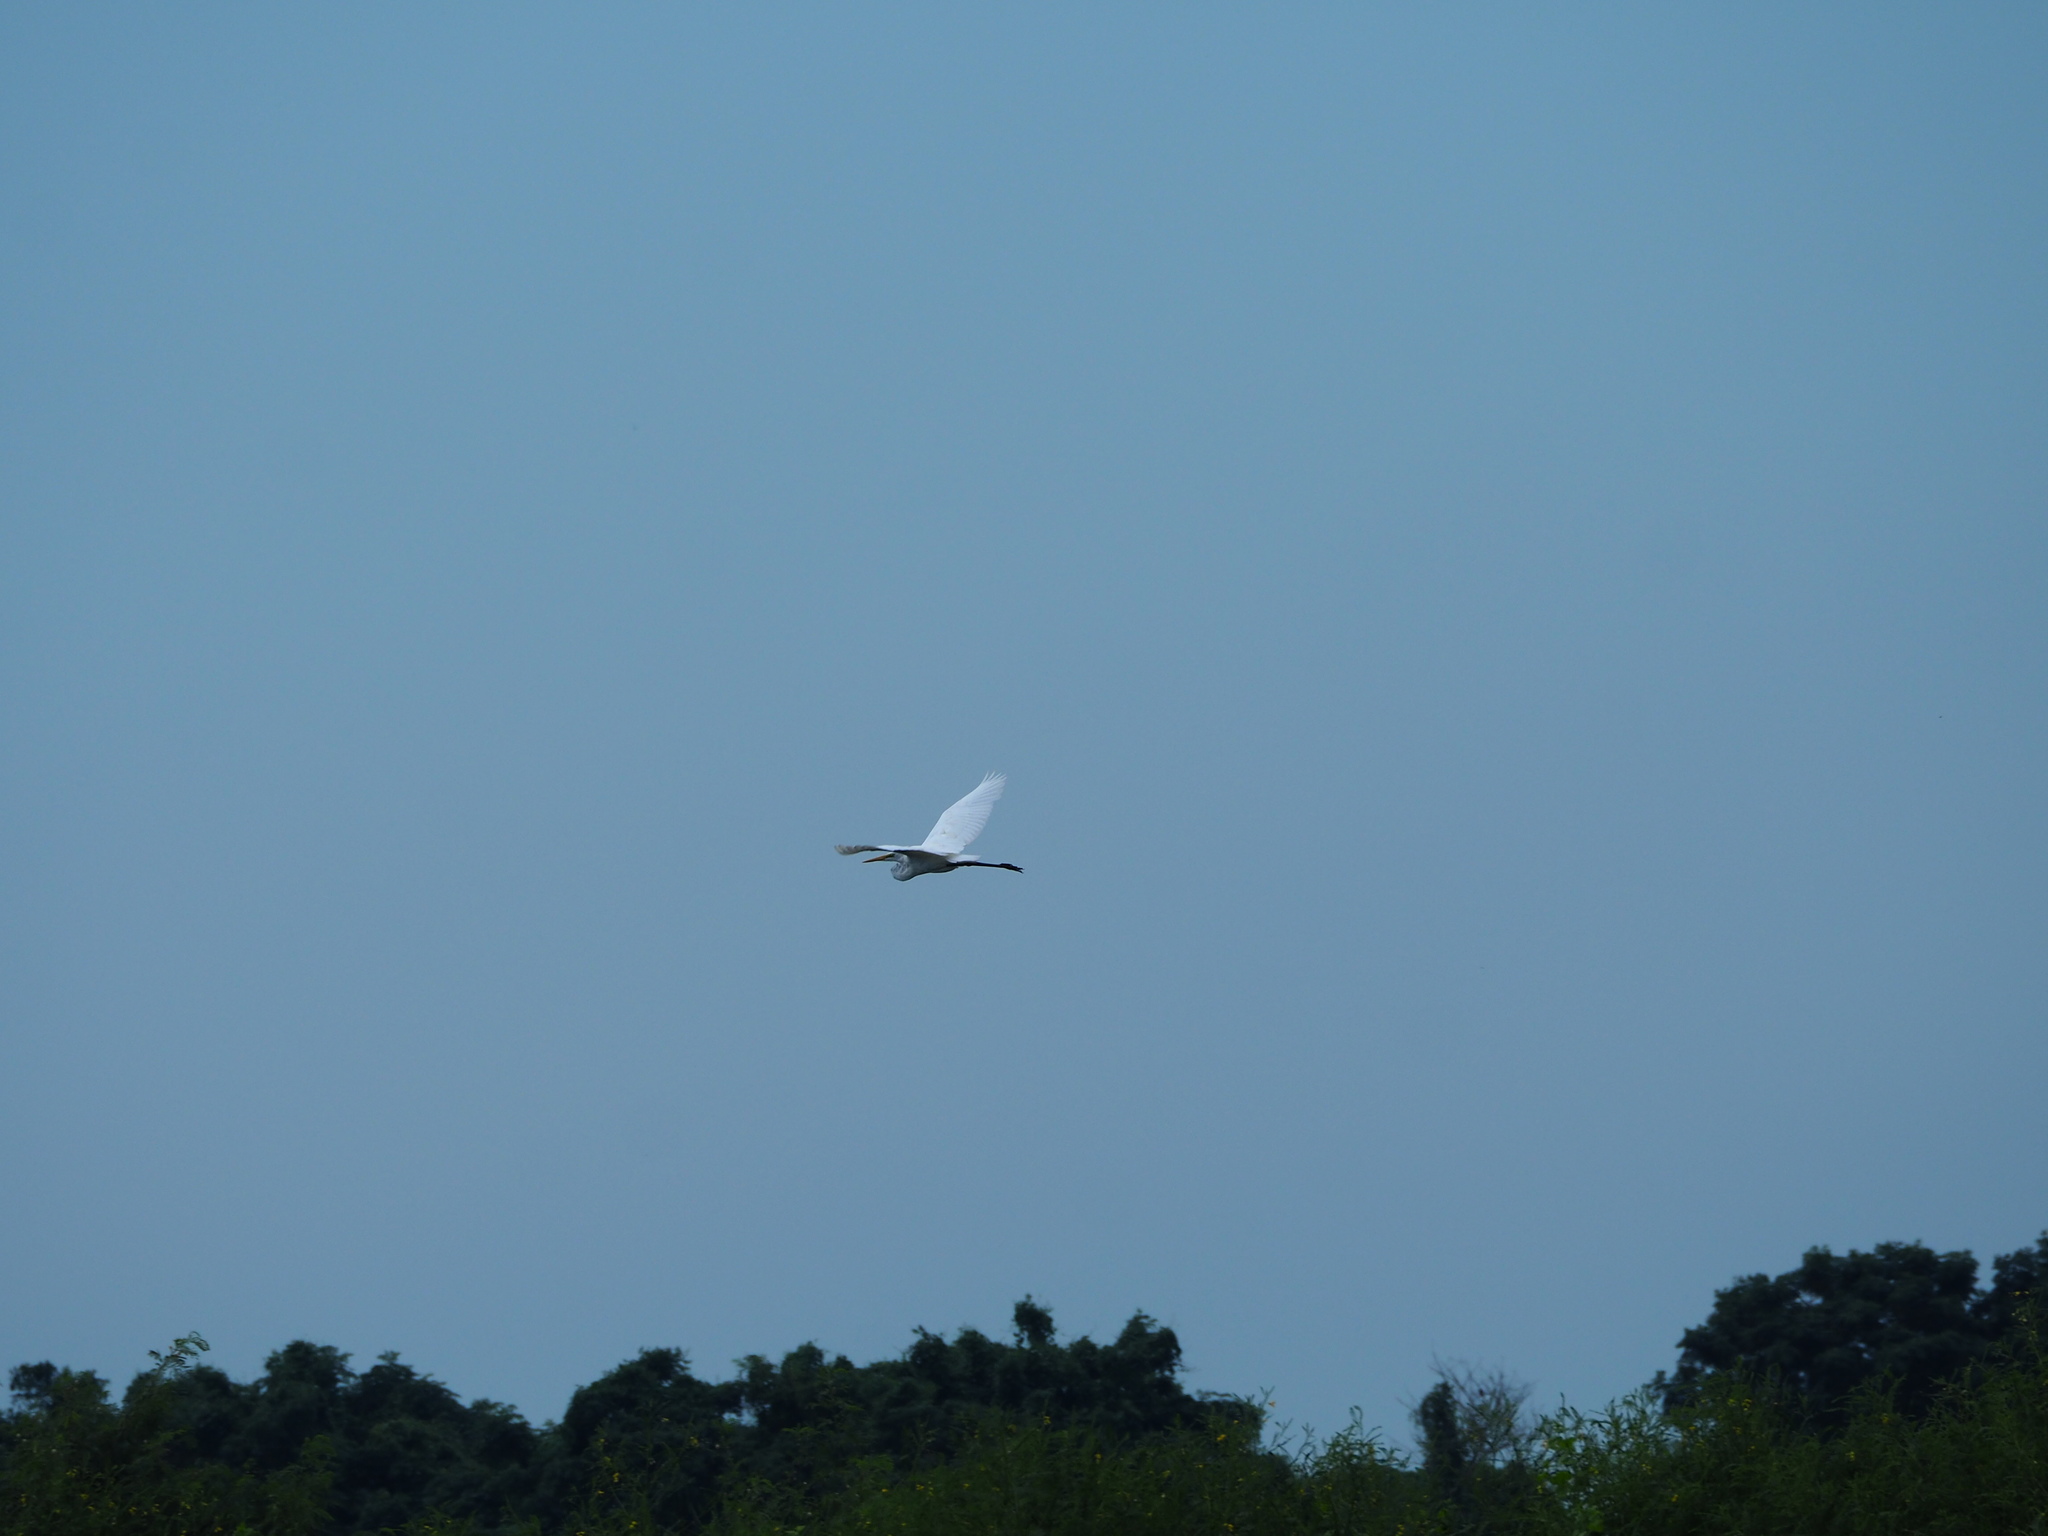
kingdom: Animalia
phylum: Chordata
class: Aves
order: Pelecaniformes
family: Ardeidae
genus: Ardea
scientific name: Ardea alba
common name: Great egret
